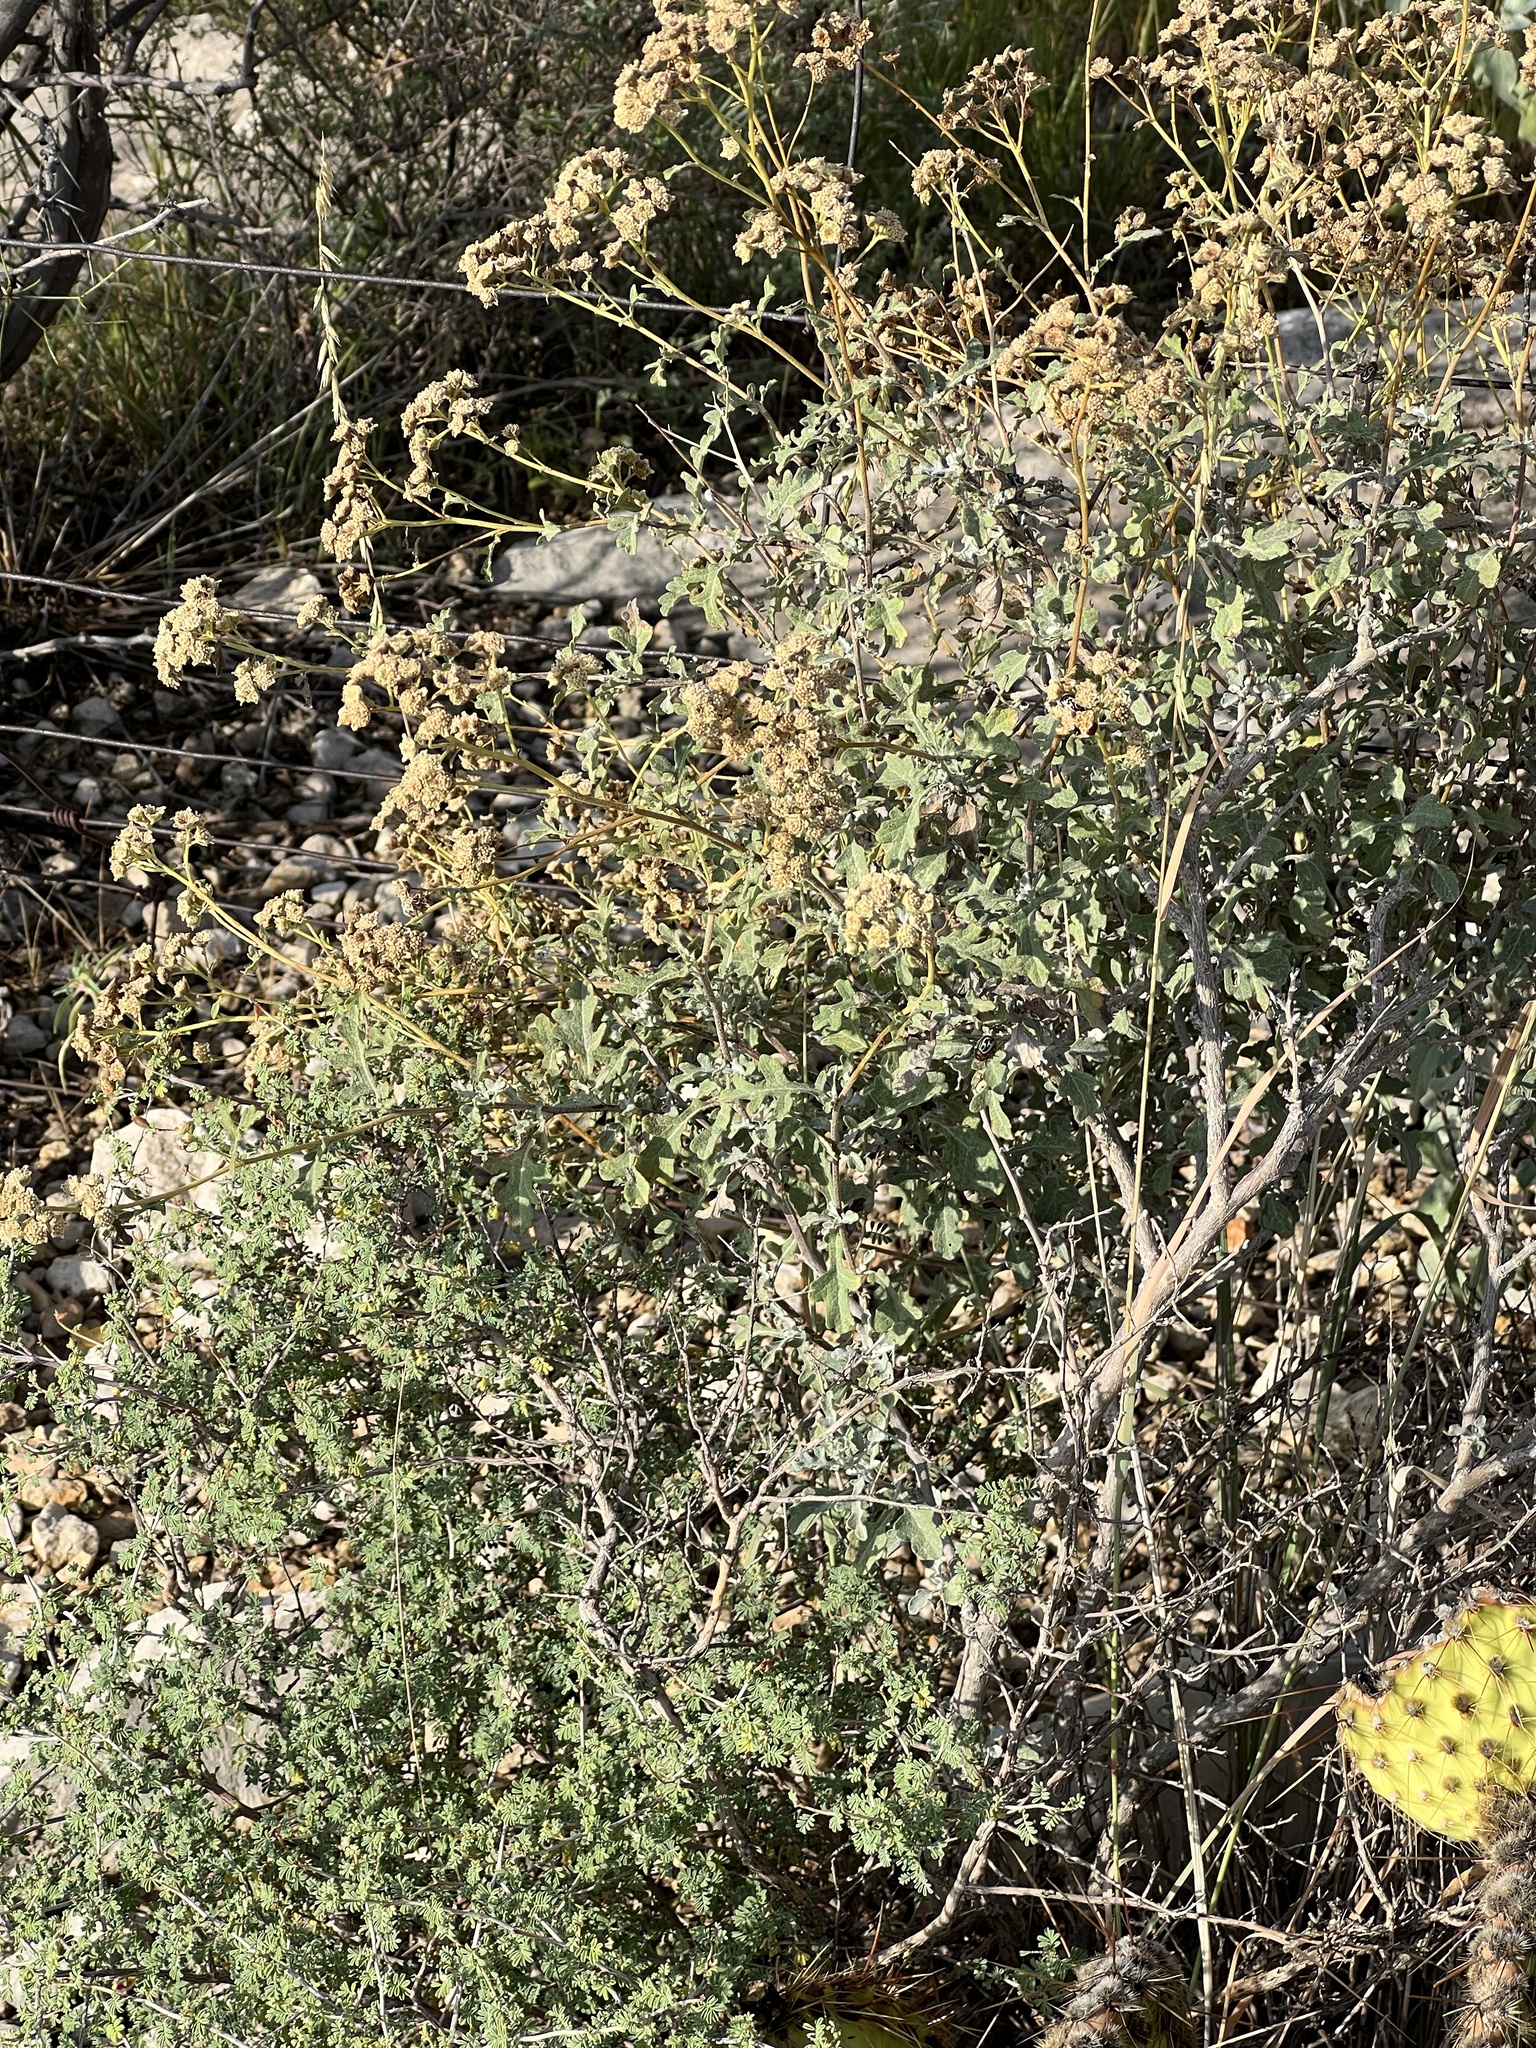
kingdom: Plantae
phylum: Tracheophyta
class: Magnoliopsida
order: Asterales
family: Asteraceae
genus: Parthenium
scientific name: Parthenium incanum
